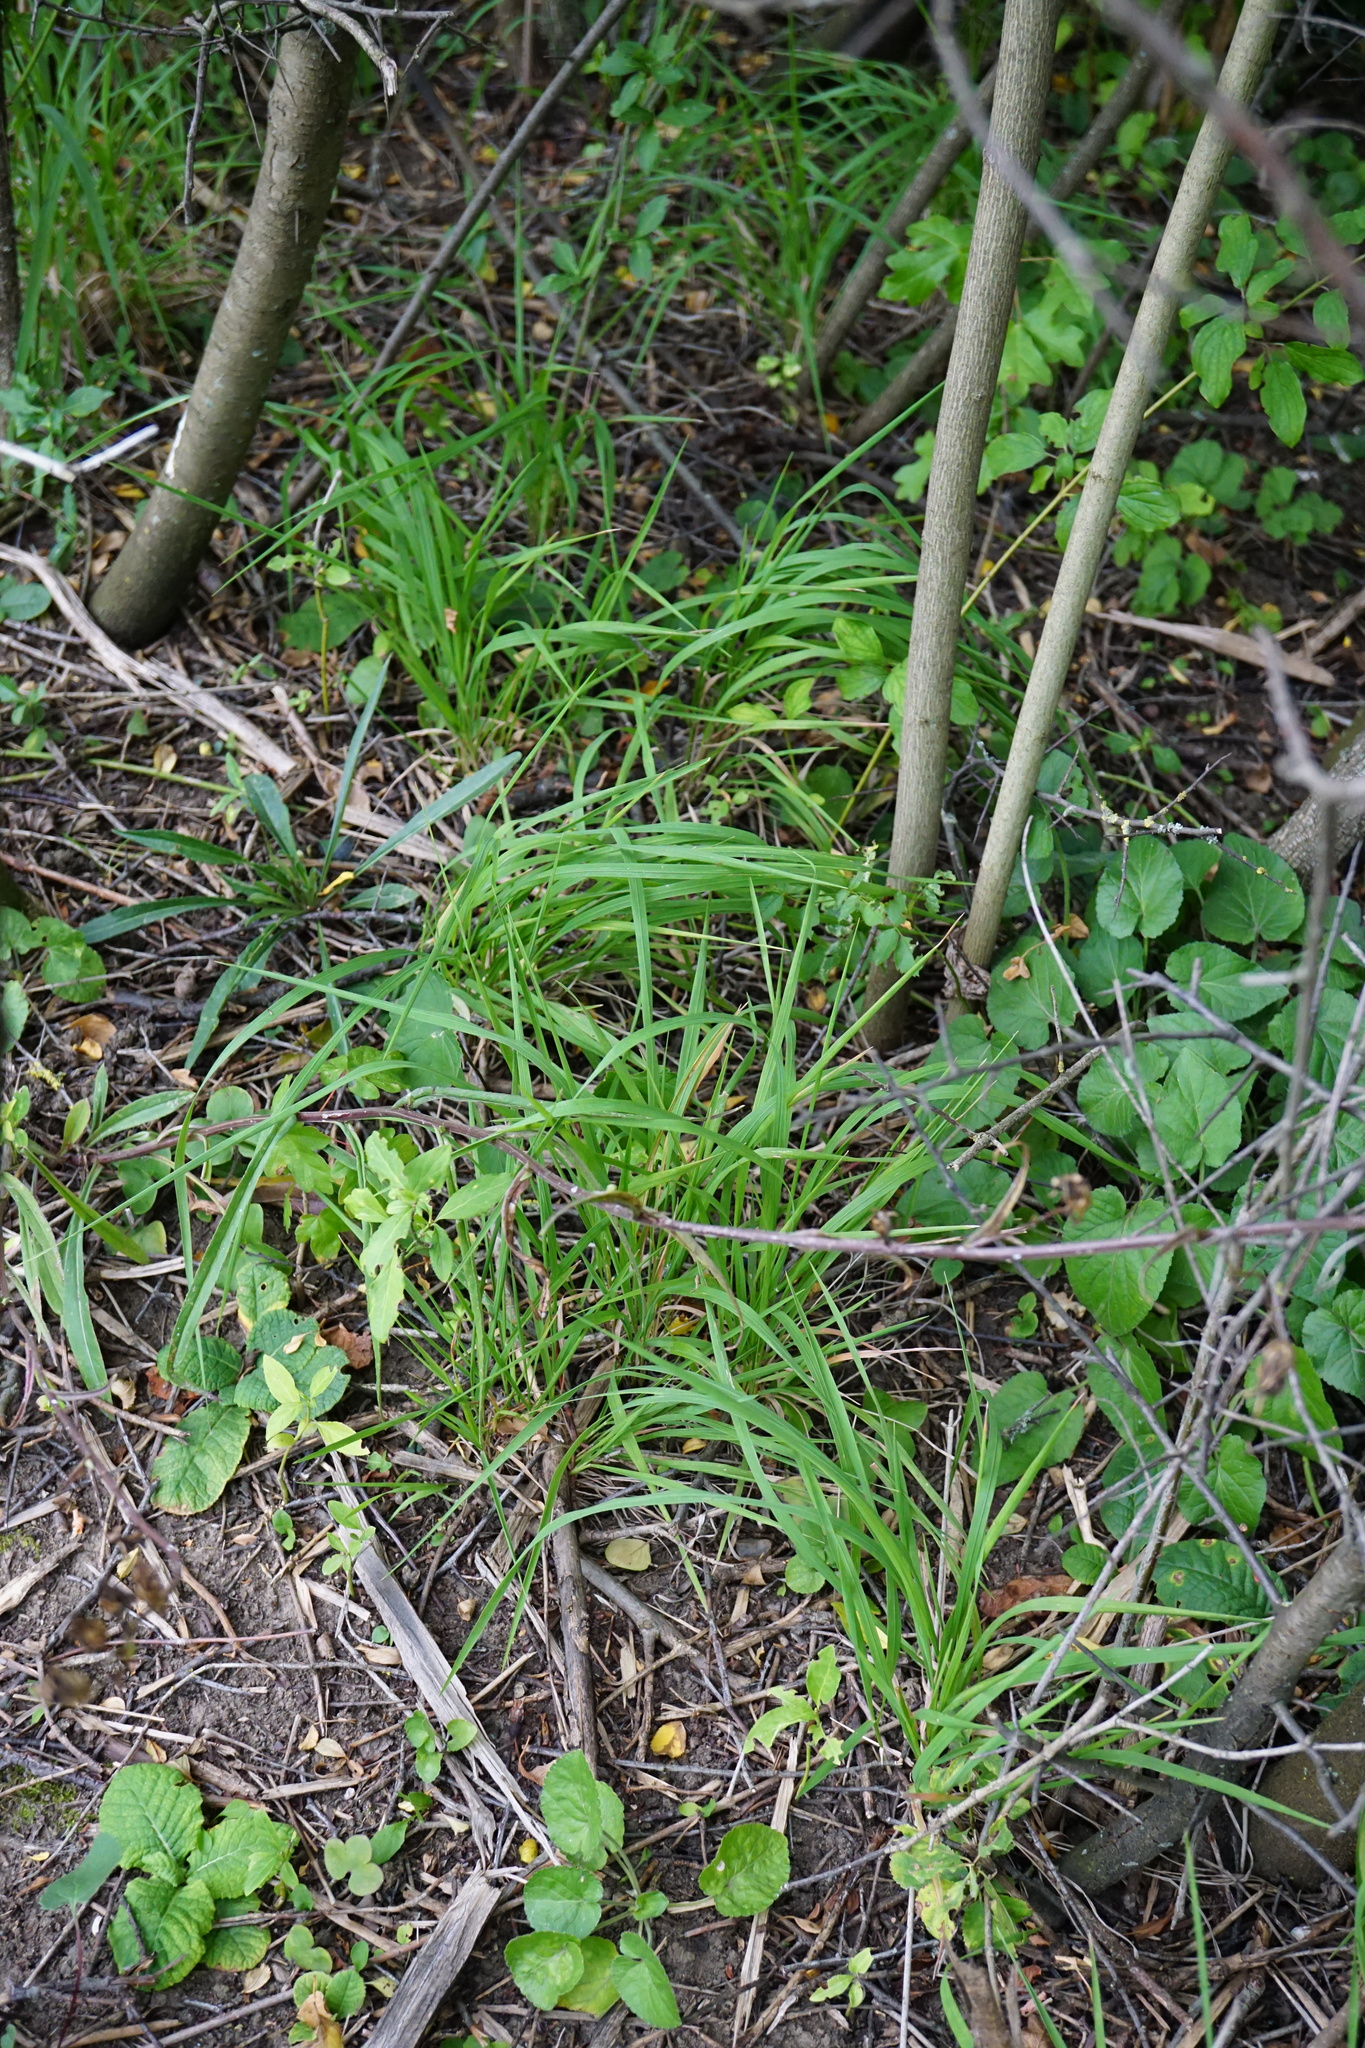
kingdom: Plantae
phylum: Tracheophyta
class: Liliopsida
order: Poales
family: Poaceae
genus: Brachypodium
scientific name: Brachypodium pinnatum
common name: Tor grass
